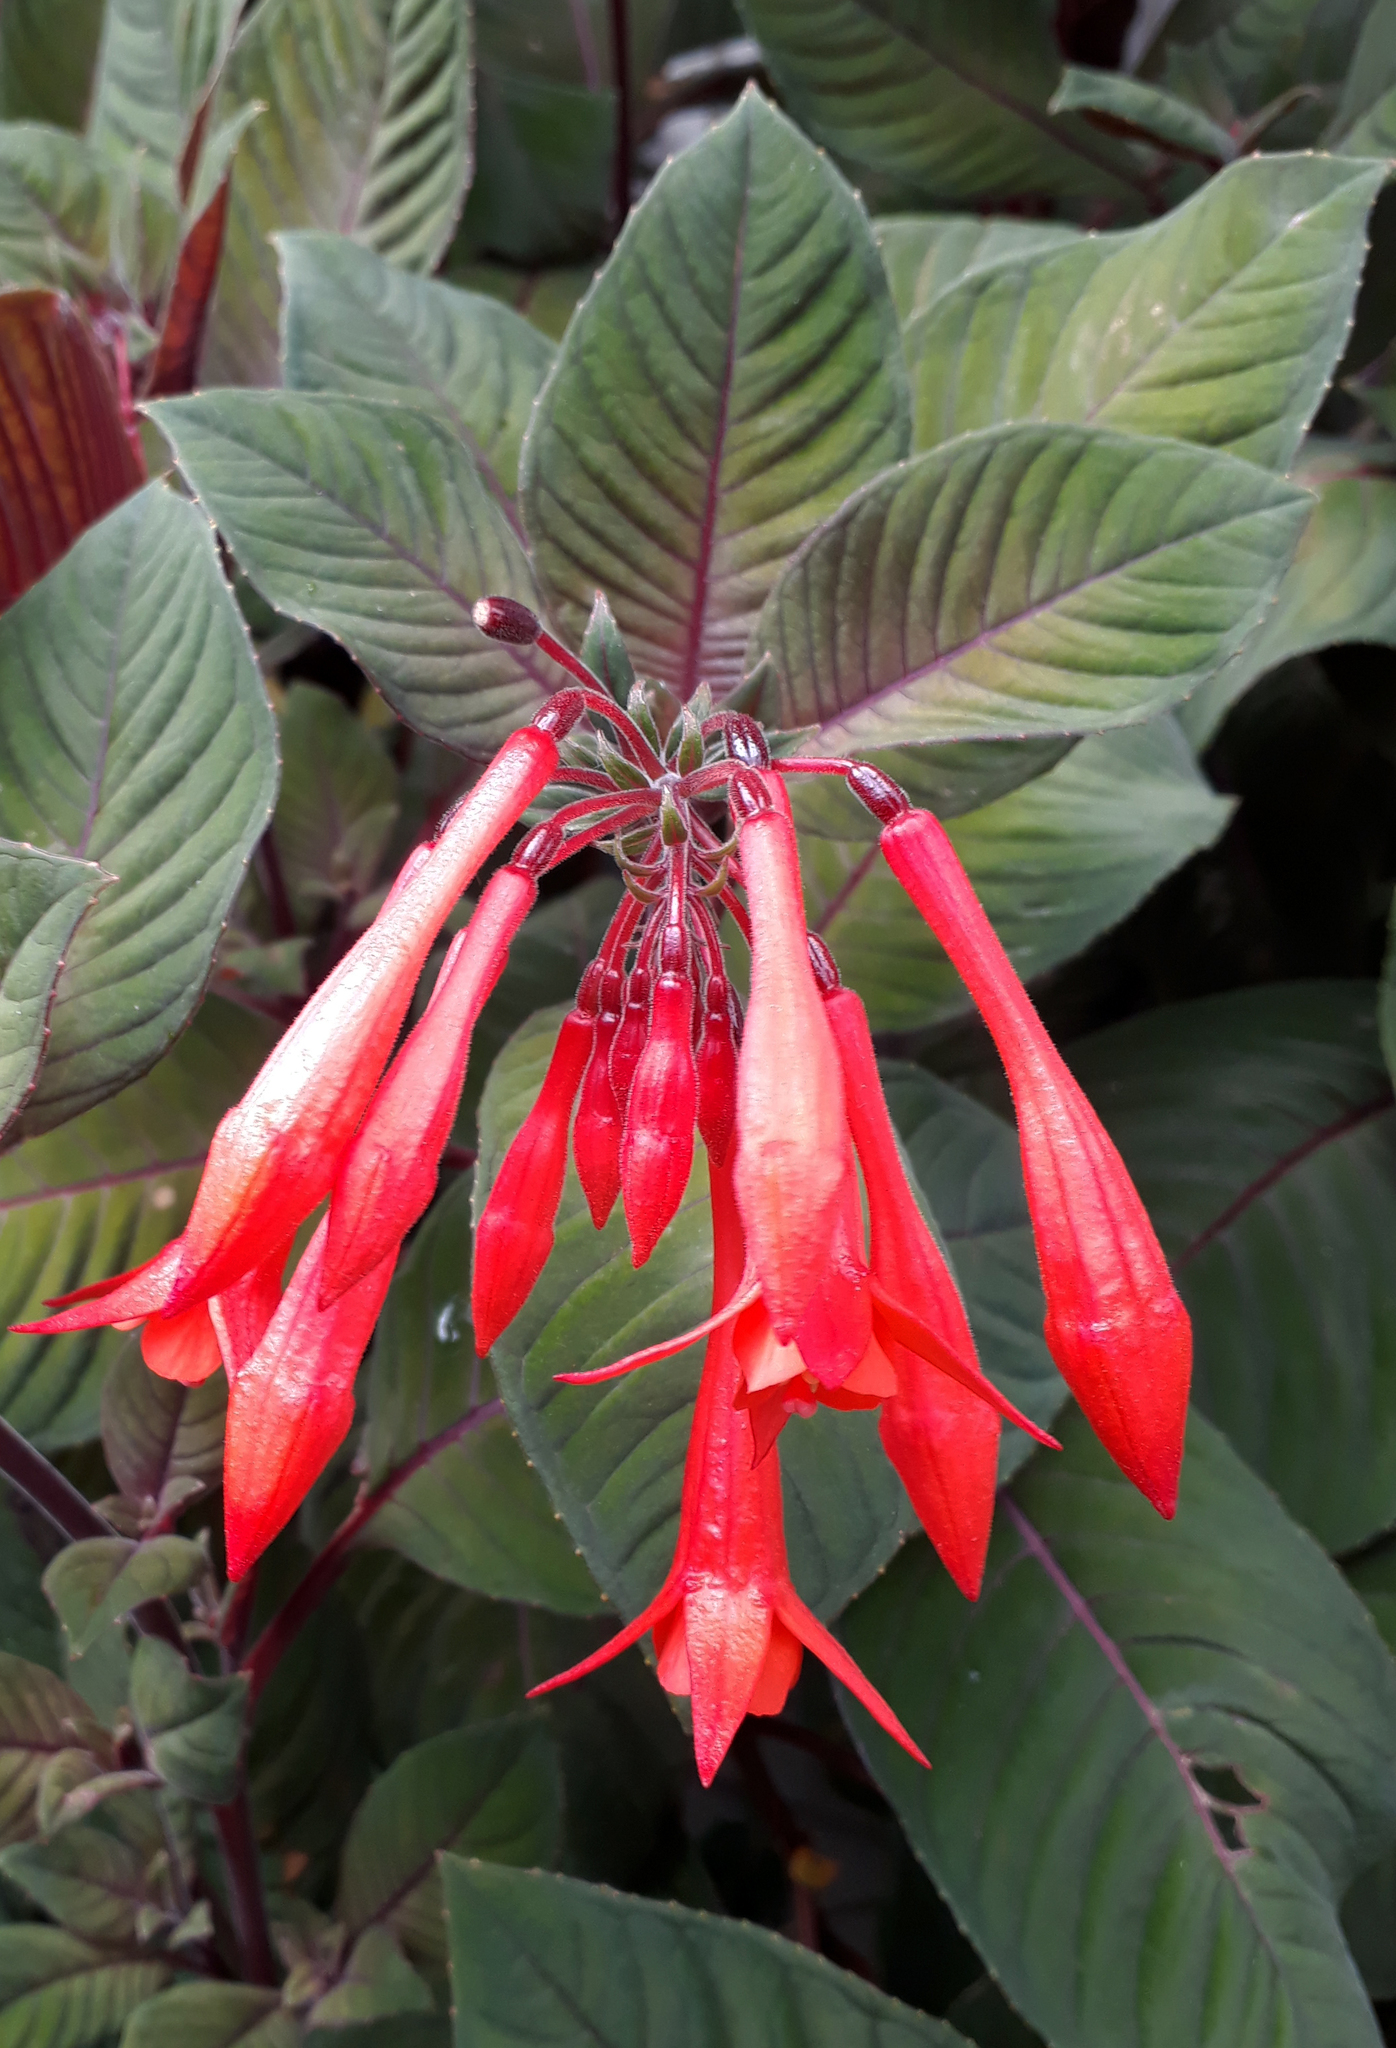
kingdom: Plantae
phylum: Tracheophyta
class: Magnoliopsida
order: Myrtales
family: Onagraceae
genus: Fuchsia
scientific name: Fuchsia boliviana
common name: Bolivian fuchsia
